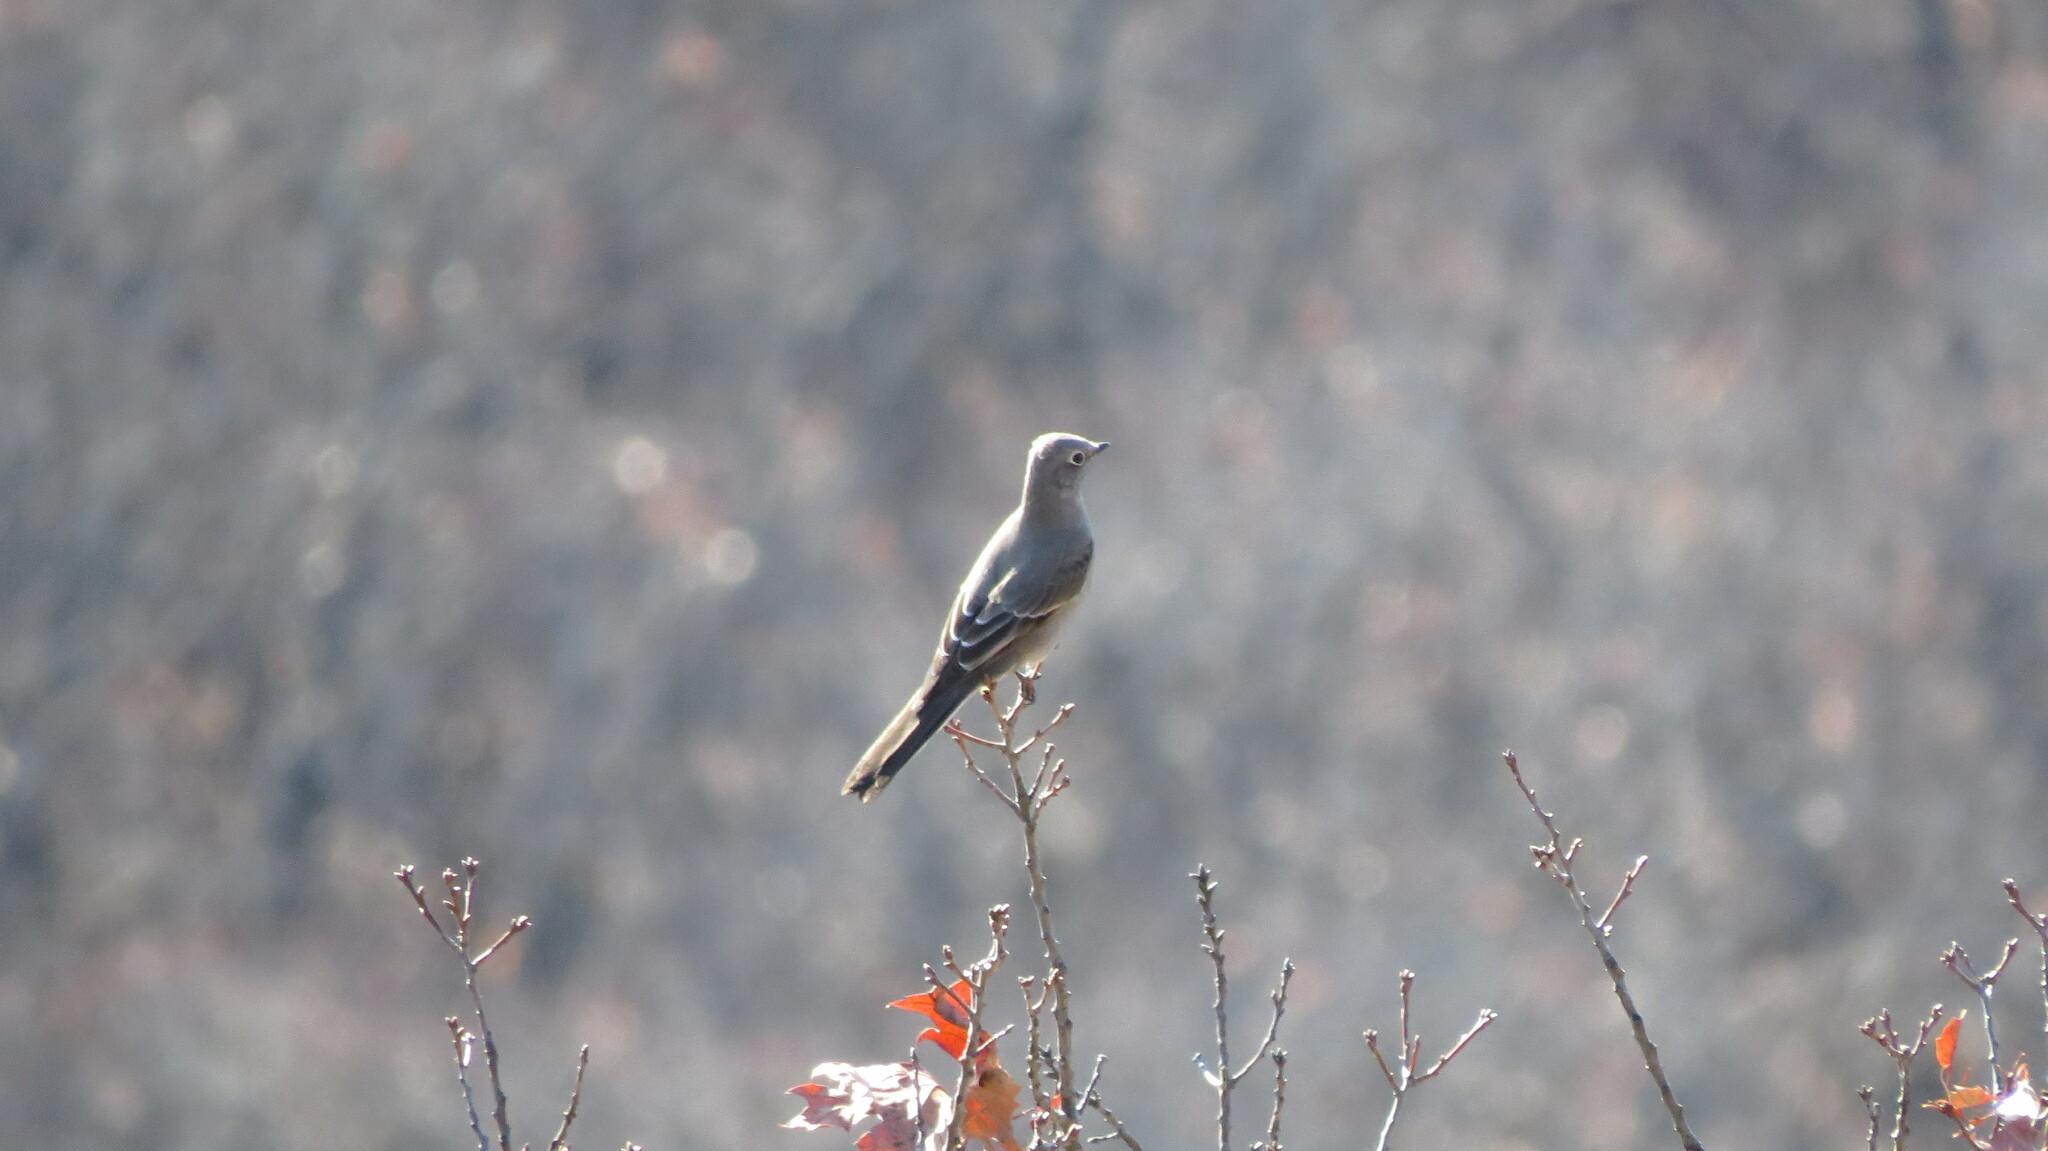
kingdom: Animalia
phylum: Chordata
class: Aves
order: Passeriformes
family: Turdidae
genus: Myadestes
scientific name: Myadestes townsendi
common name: Townsend's solitaire
